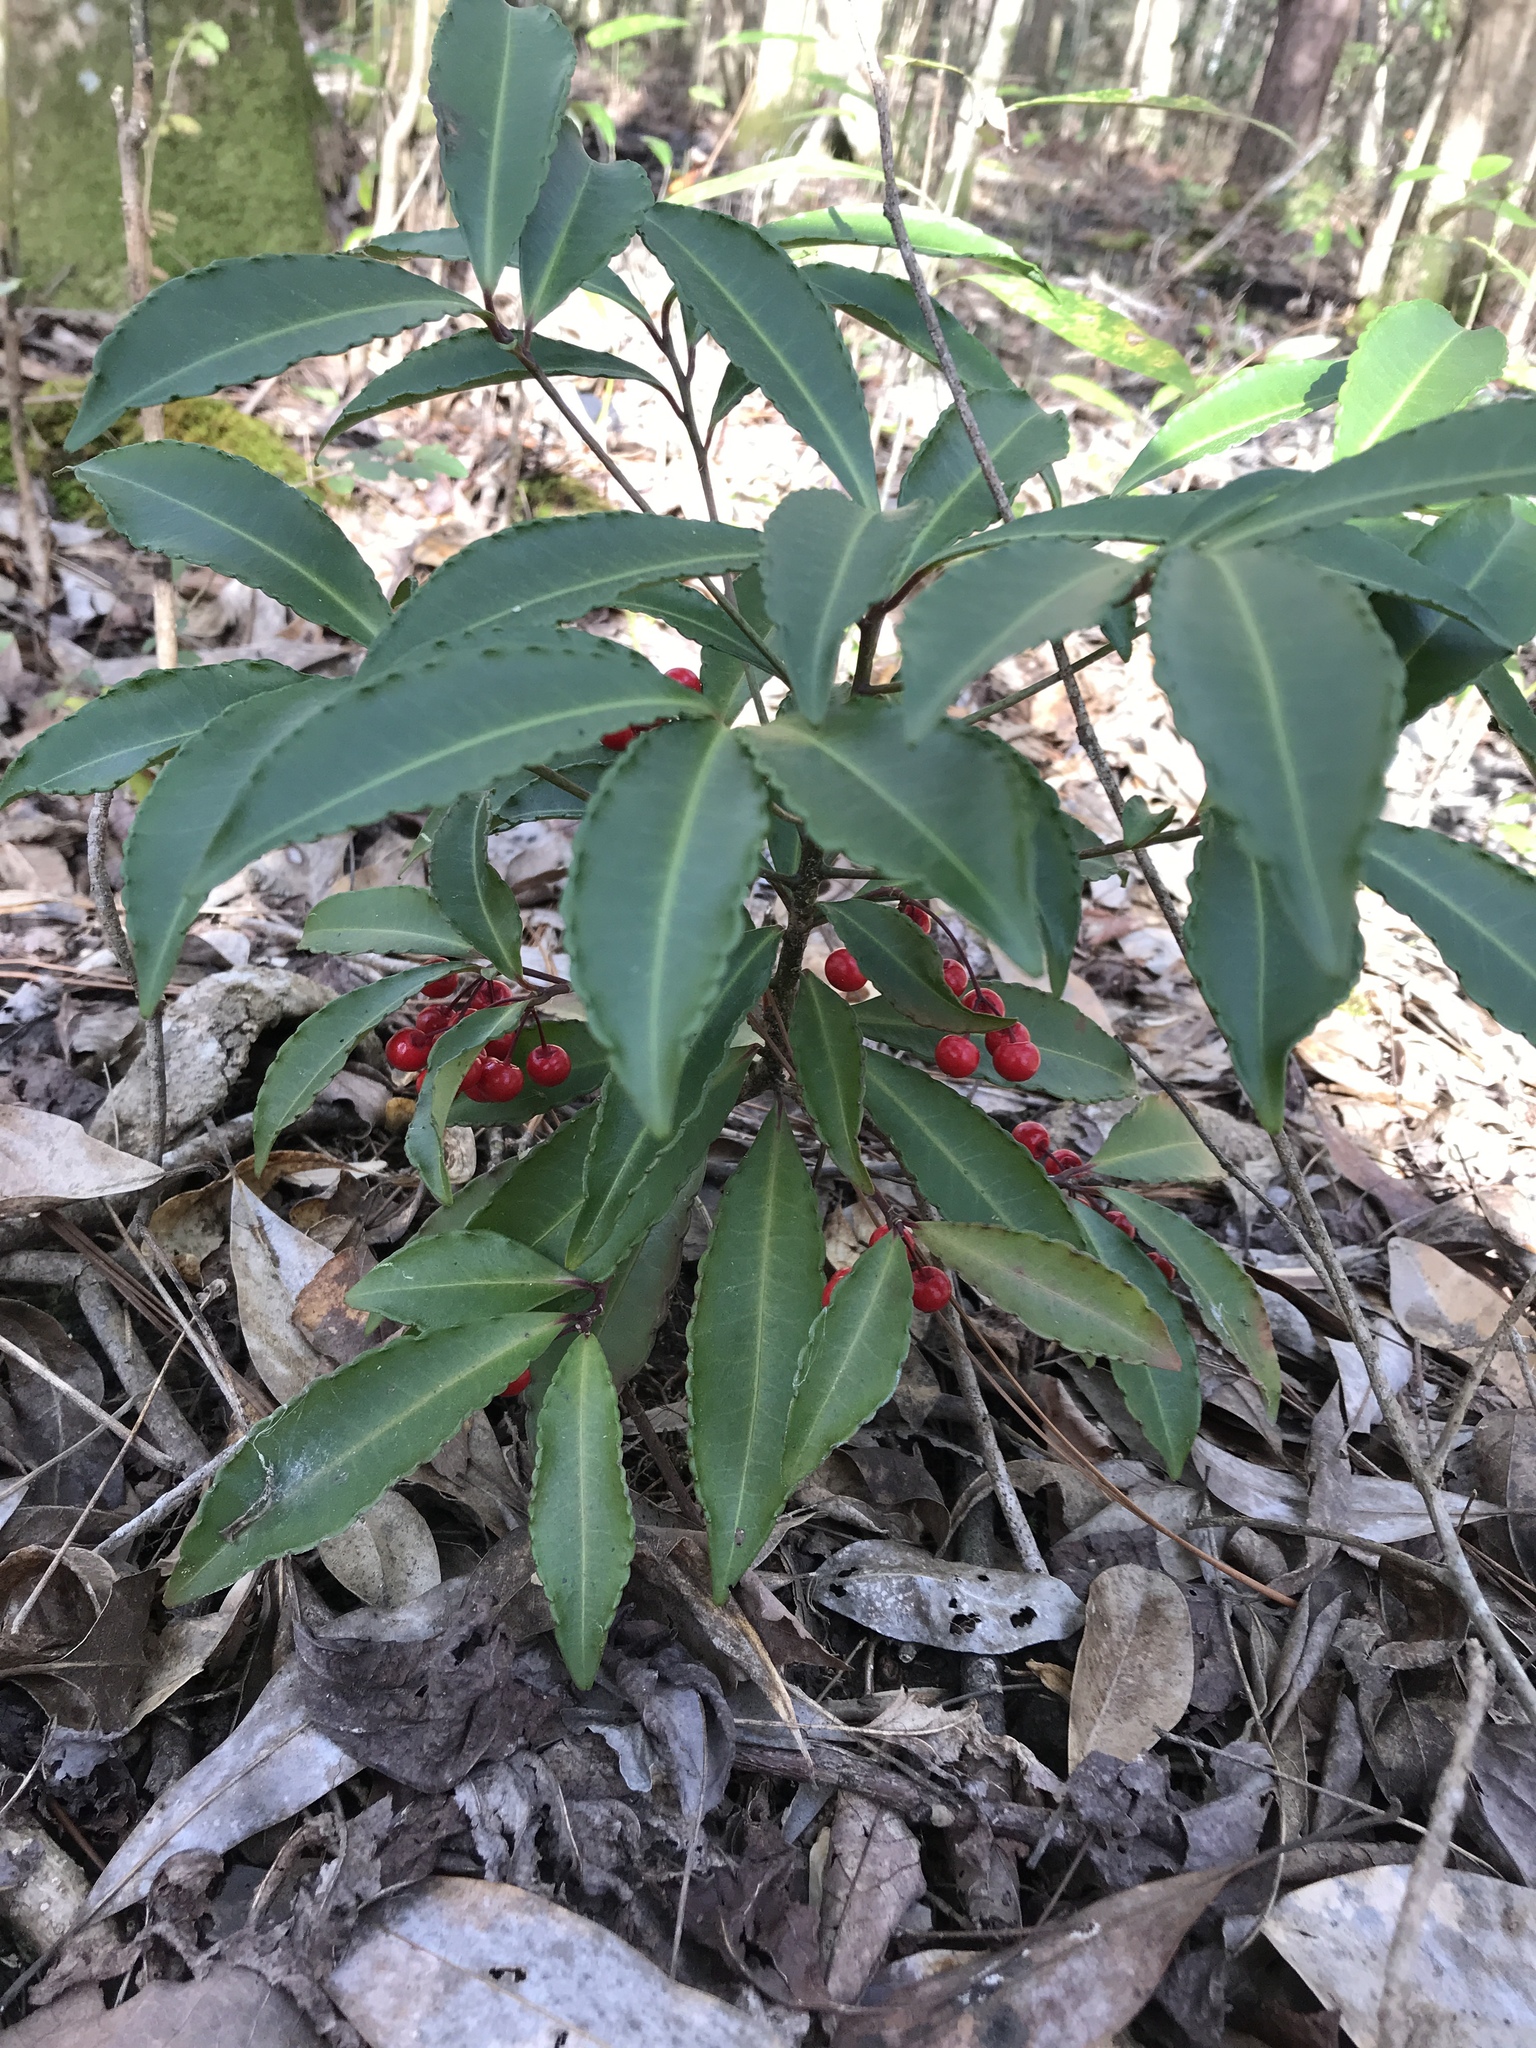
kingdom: Plantae
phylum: Tracheophyta
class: Magnoliopsida
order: Ericales
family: Primulaceae
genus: Ardisia
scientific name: Ardisia crenata
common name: Hen's eyes
